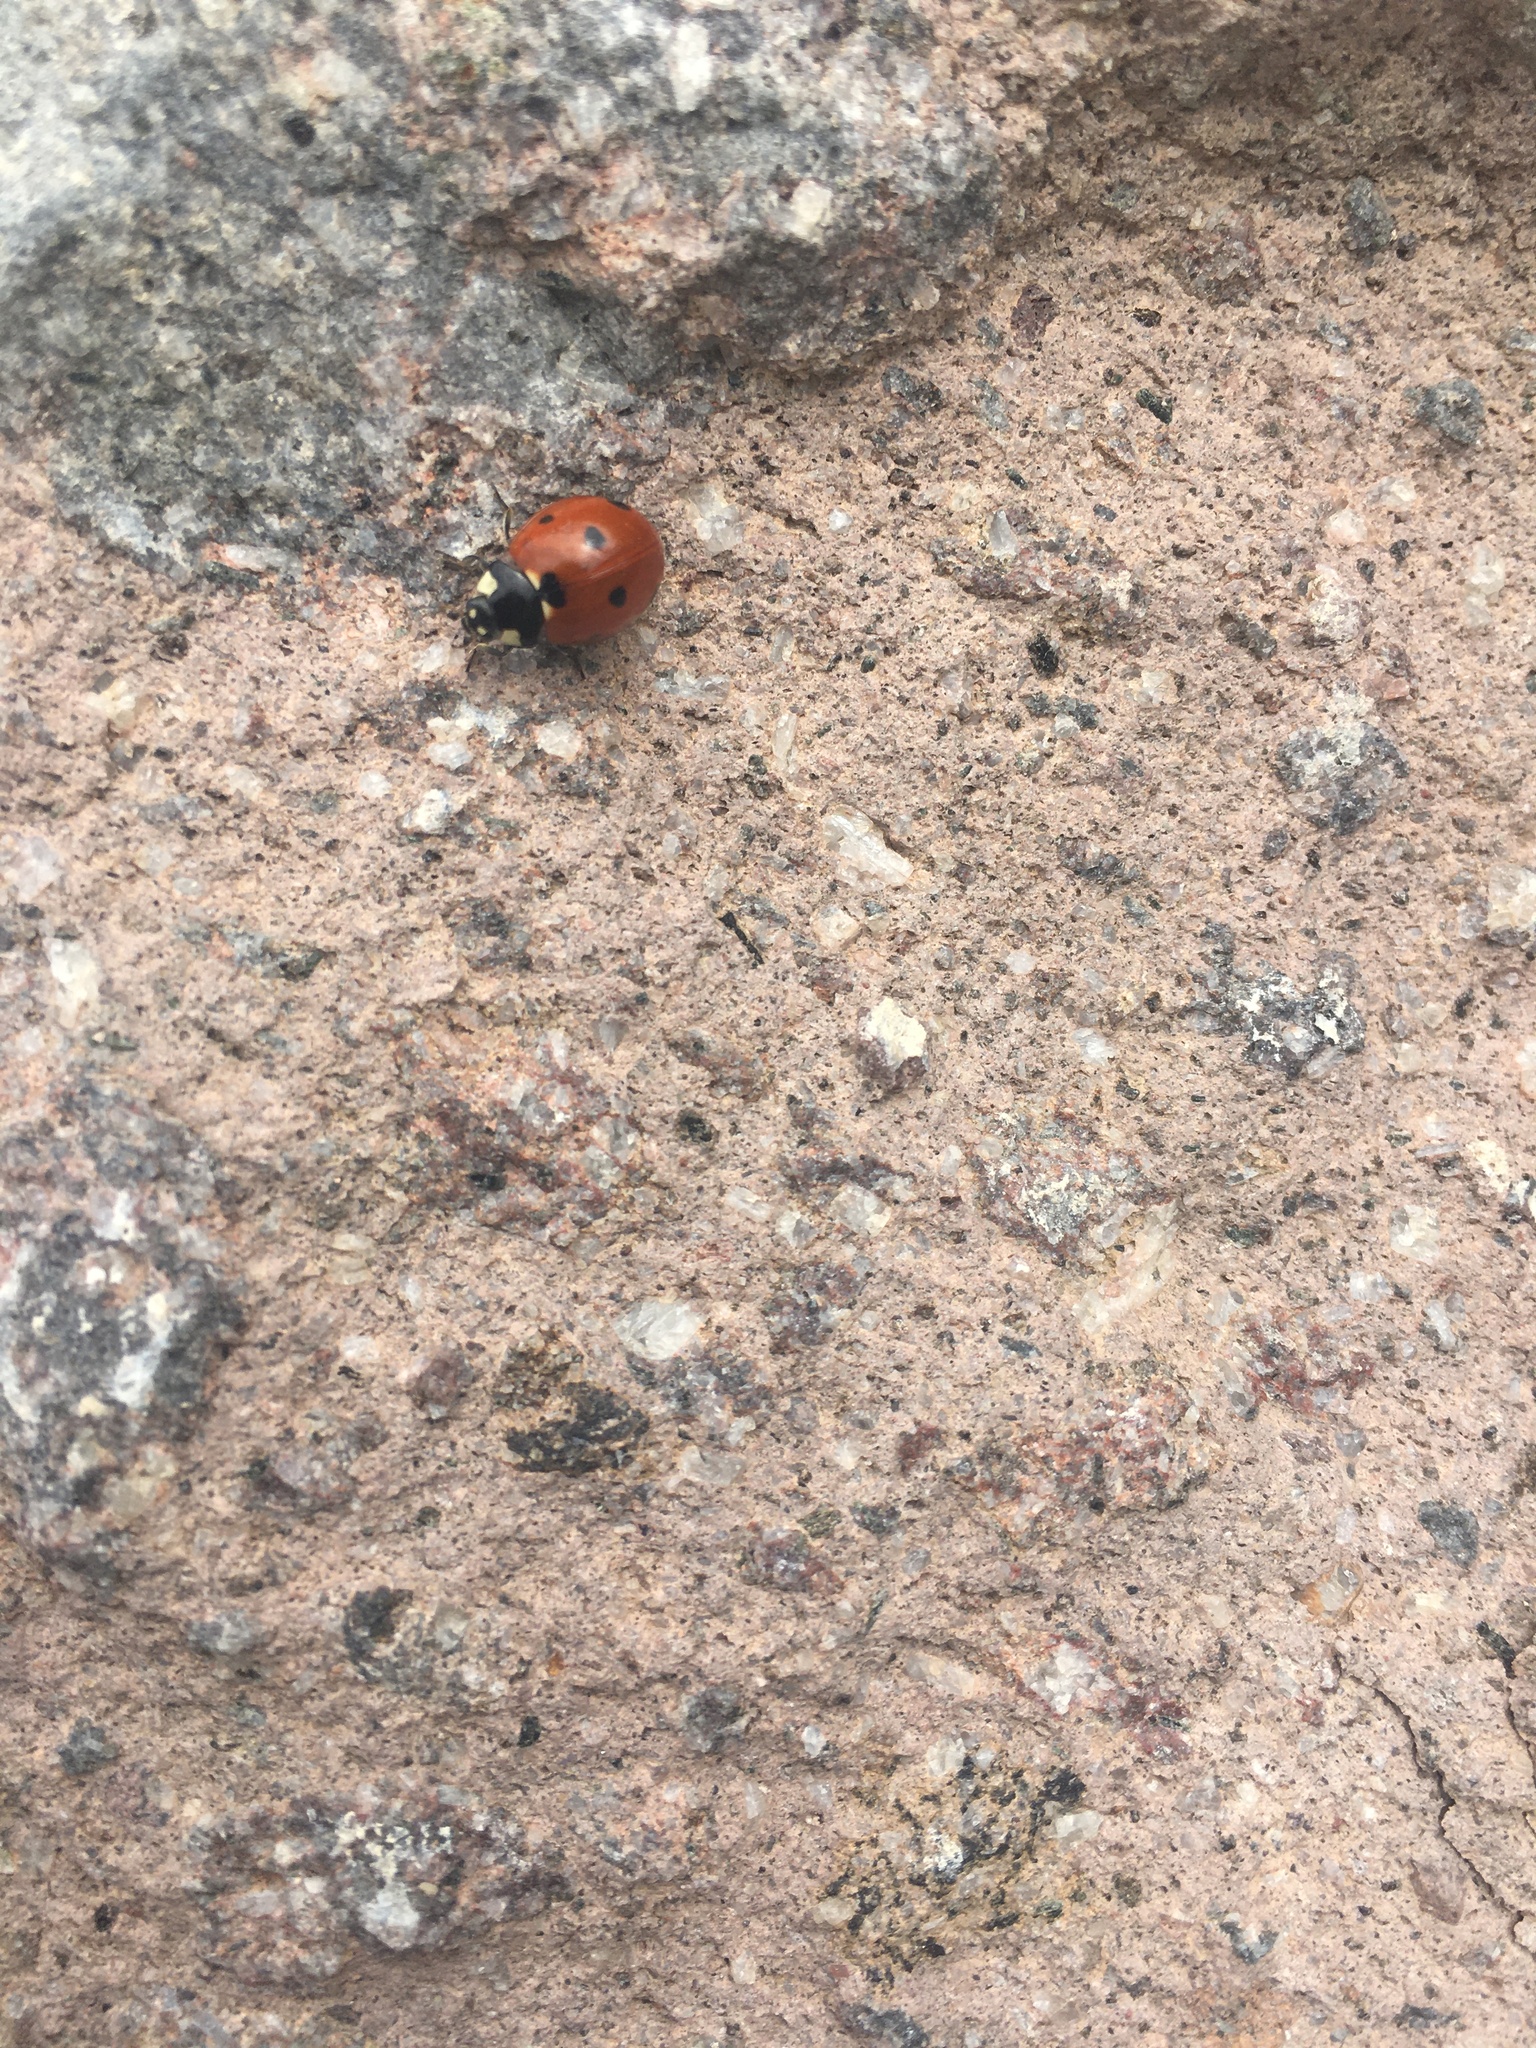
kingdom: Animalia
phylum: Arthropoda
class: Insecta
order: Coleoptera
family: Coccinellidae
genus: Coccinella
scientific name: Coccinella septempunctata
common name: Sevenspotted lady beetle
